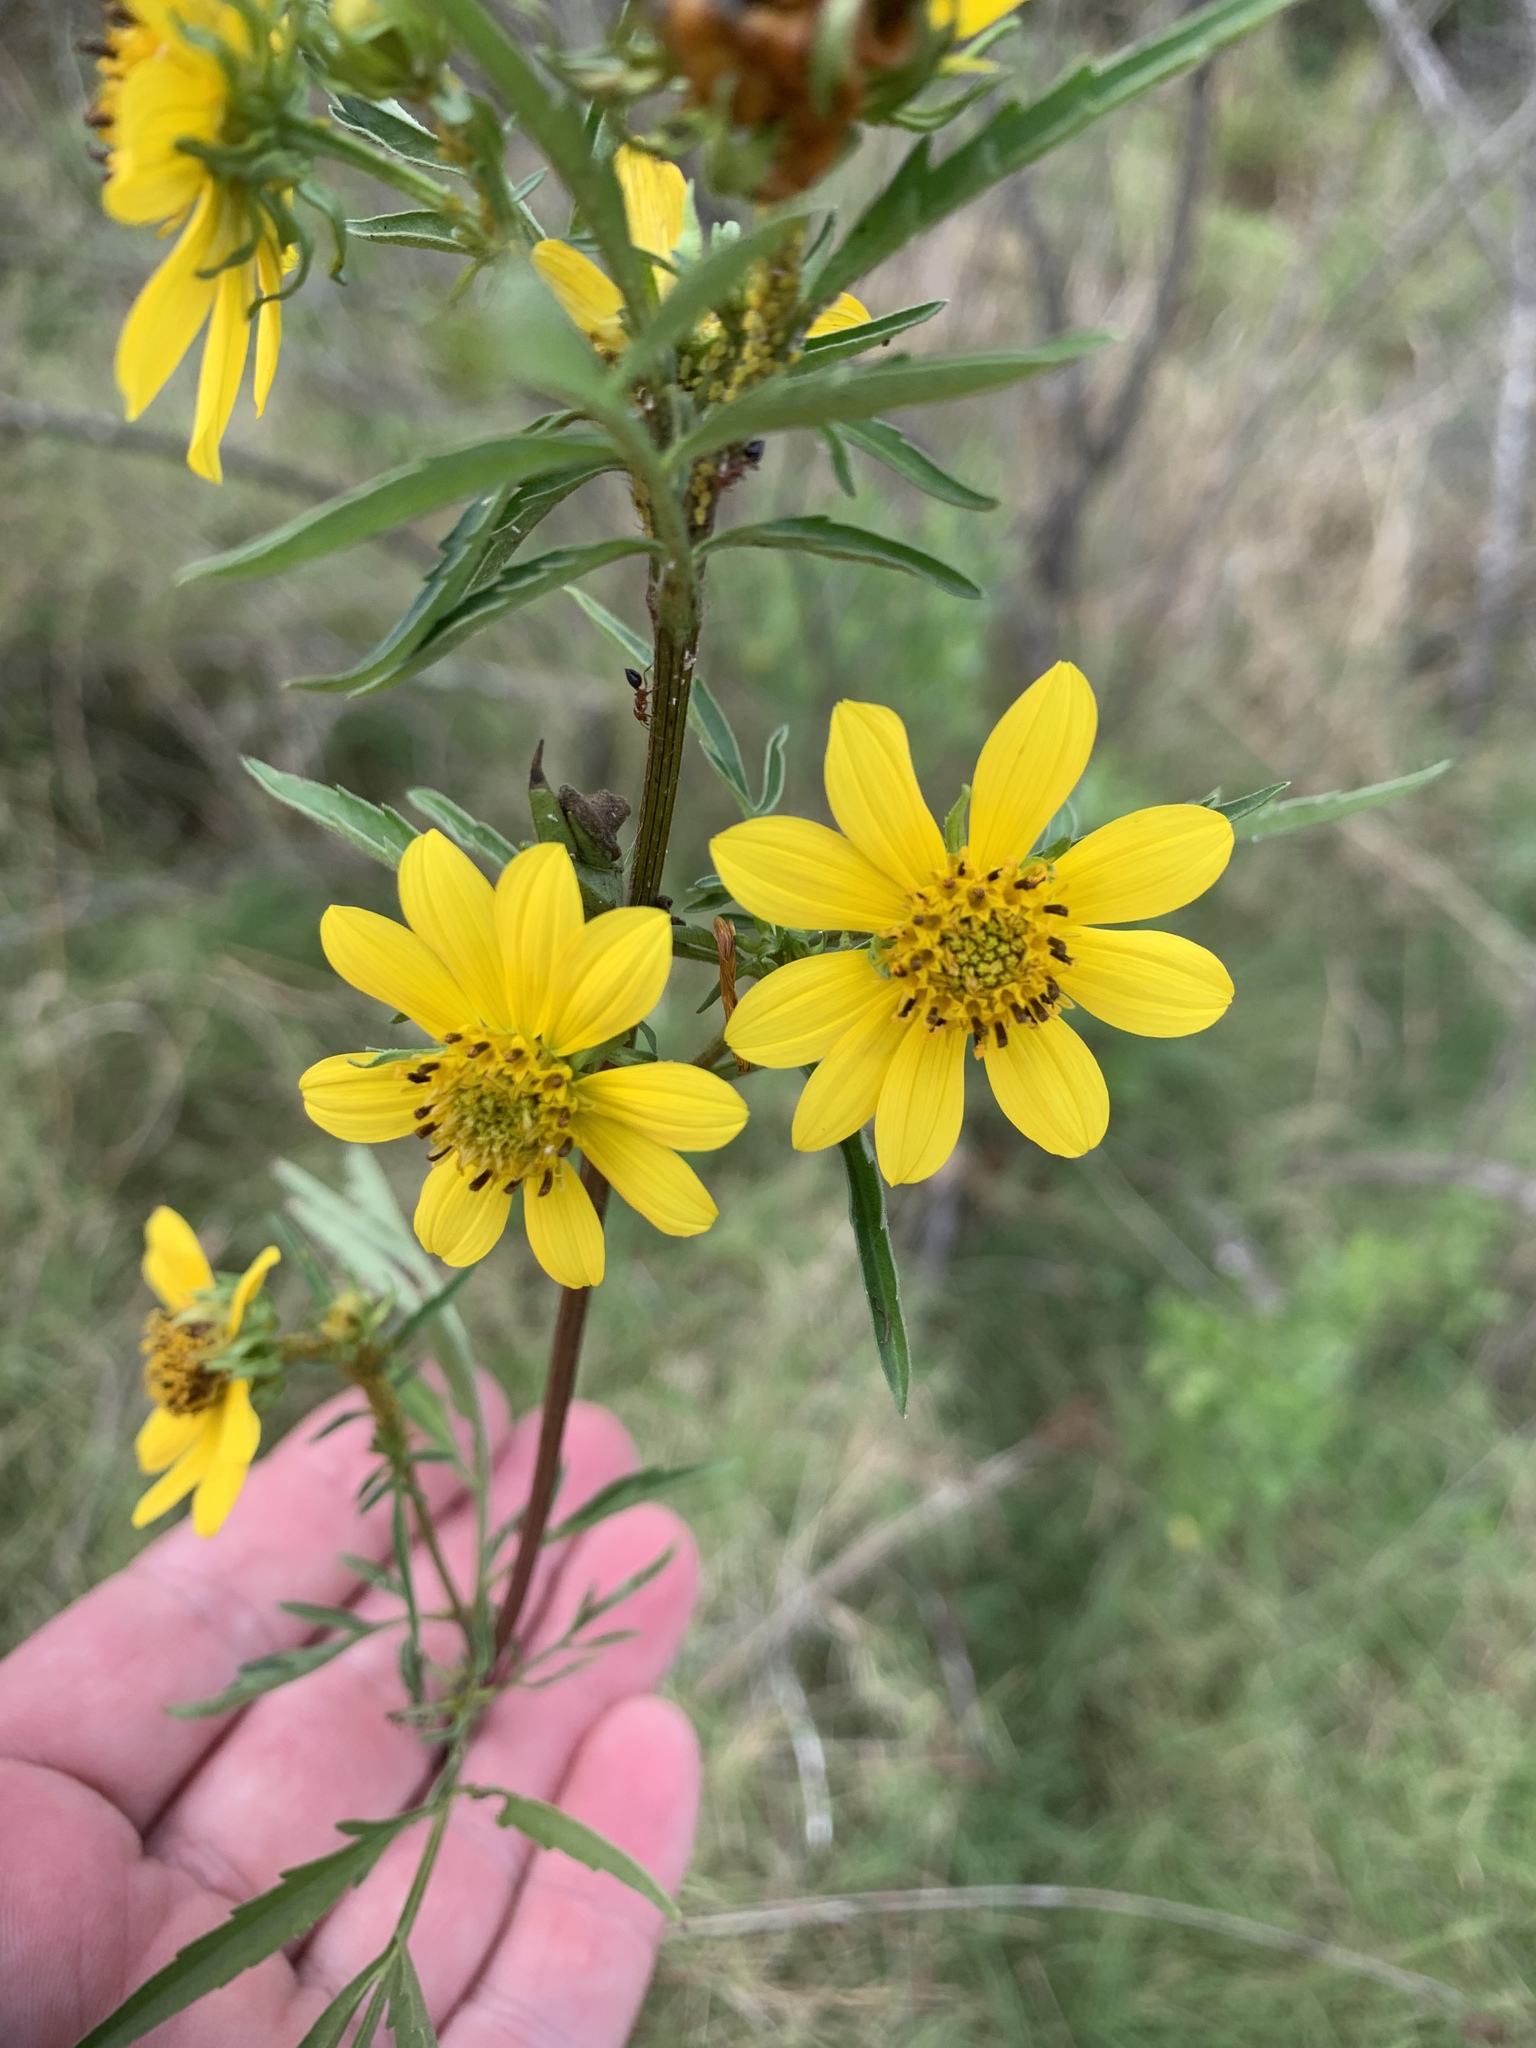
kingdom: Plantae
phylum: Tracheophyta
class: Magnoliopsida
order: Asterales
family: Asteraceae
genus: Bidens
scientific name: Bidens aristosa
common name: Western tickseed
